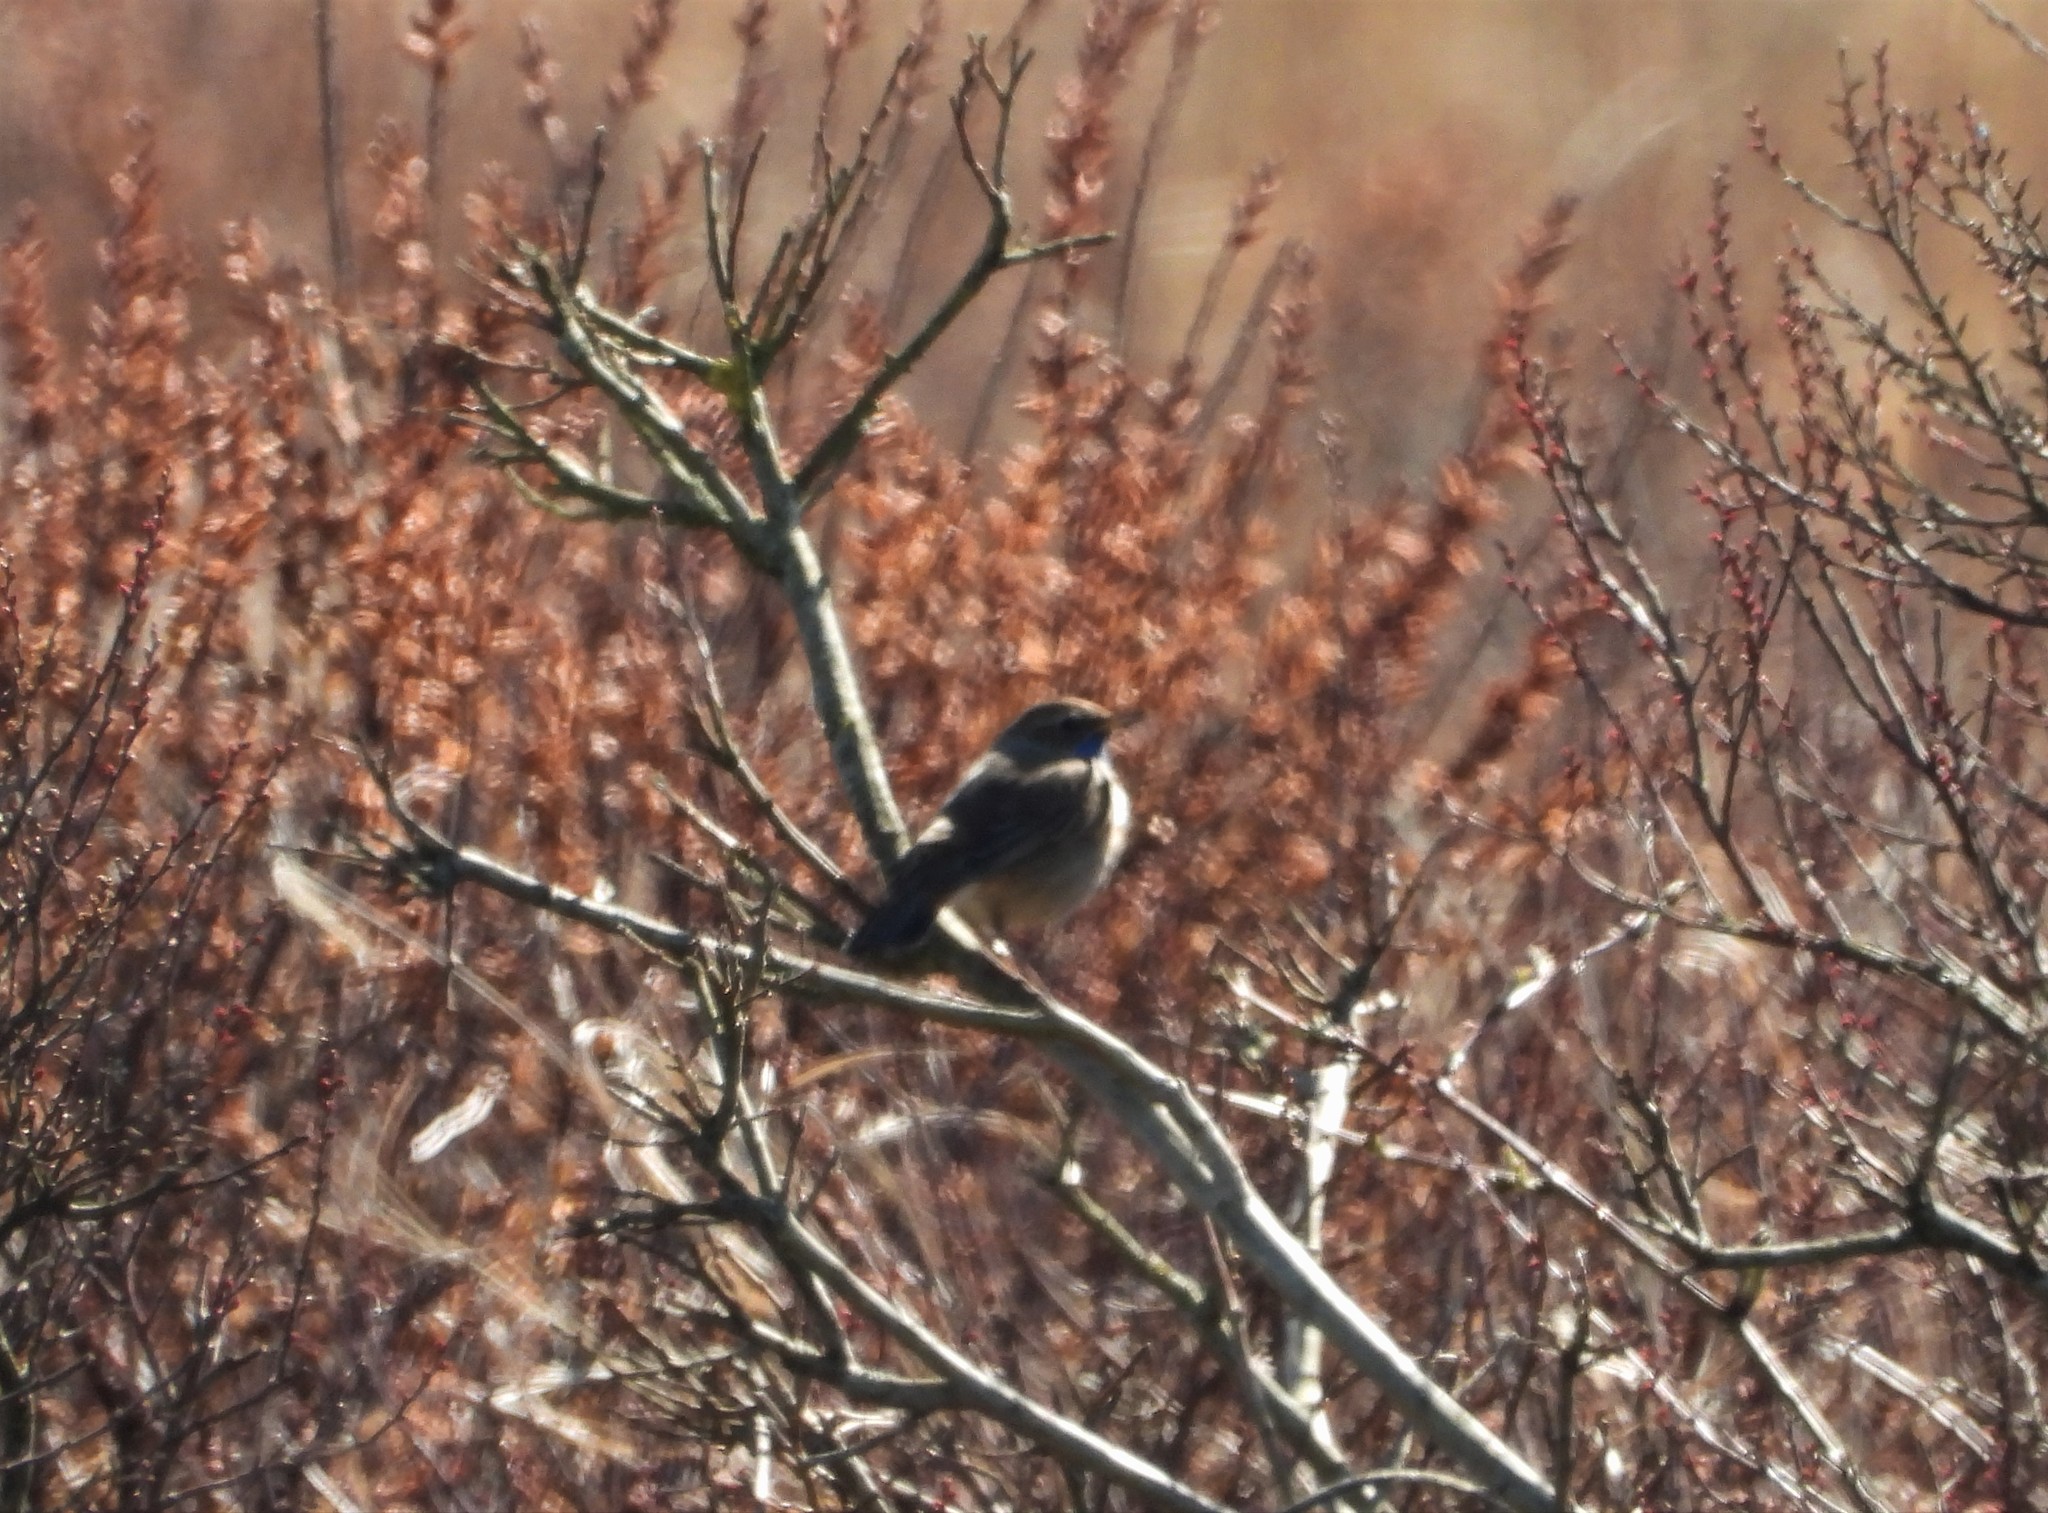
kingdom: Animalia
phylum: Chordata
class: Aves
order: Passeriformes
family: Muscicapidae
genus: Luscinia
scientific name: Luscinia svecica
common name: Bluethroat
